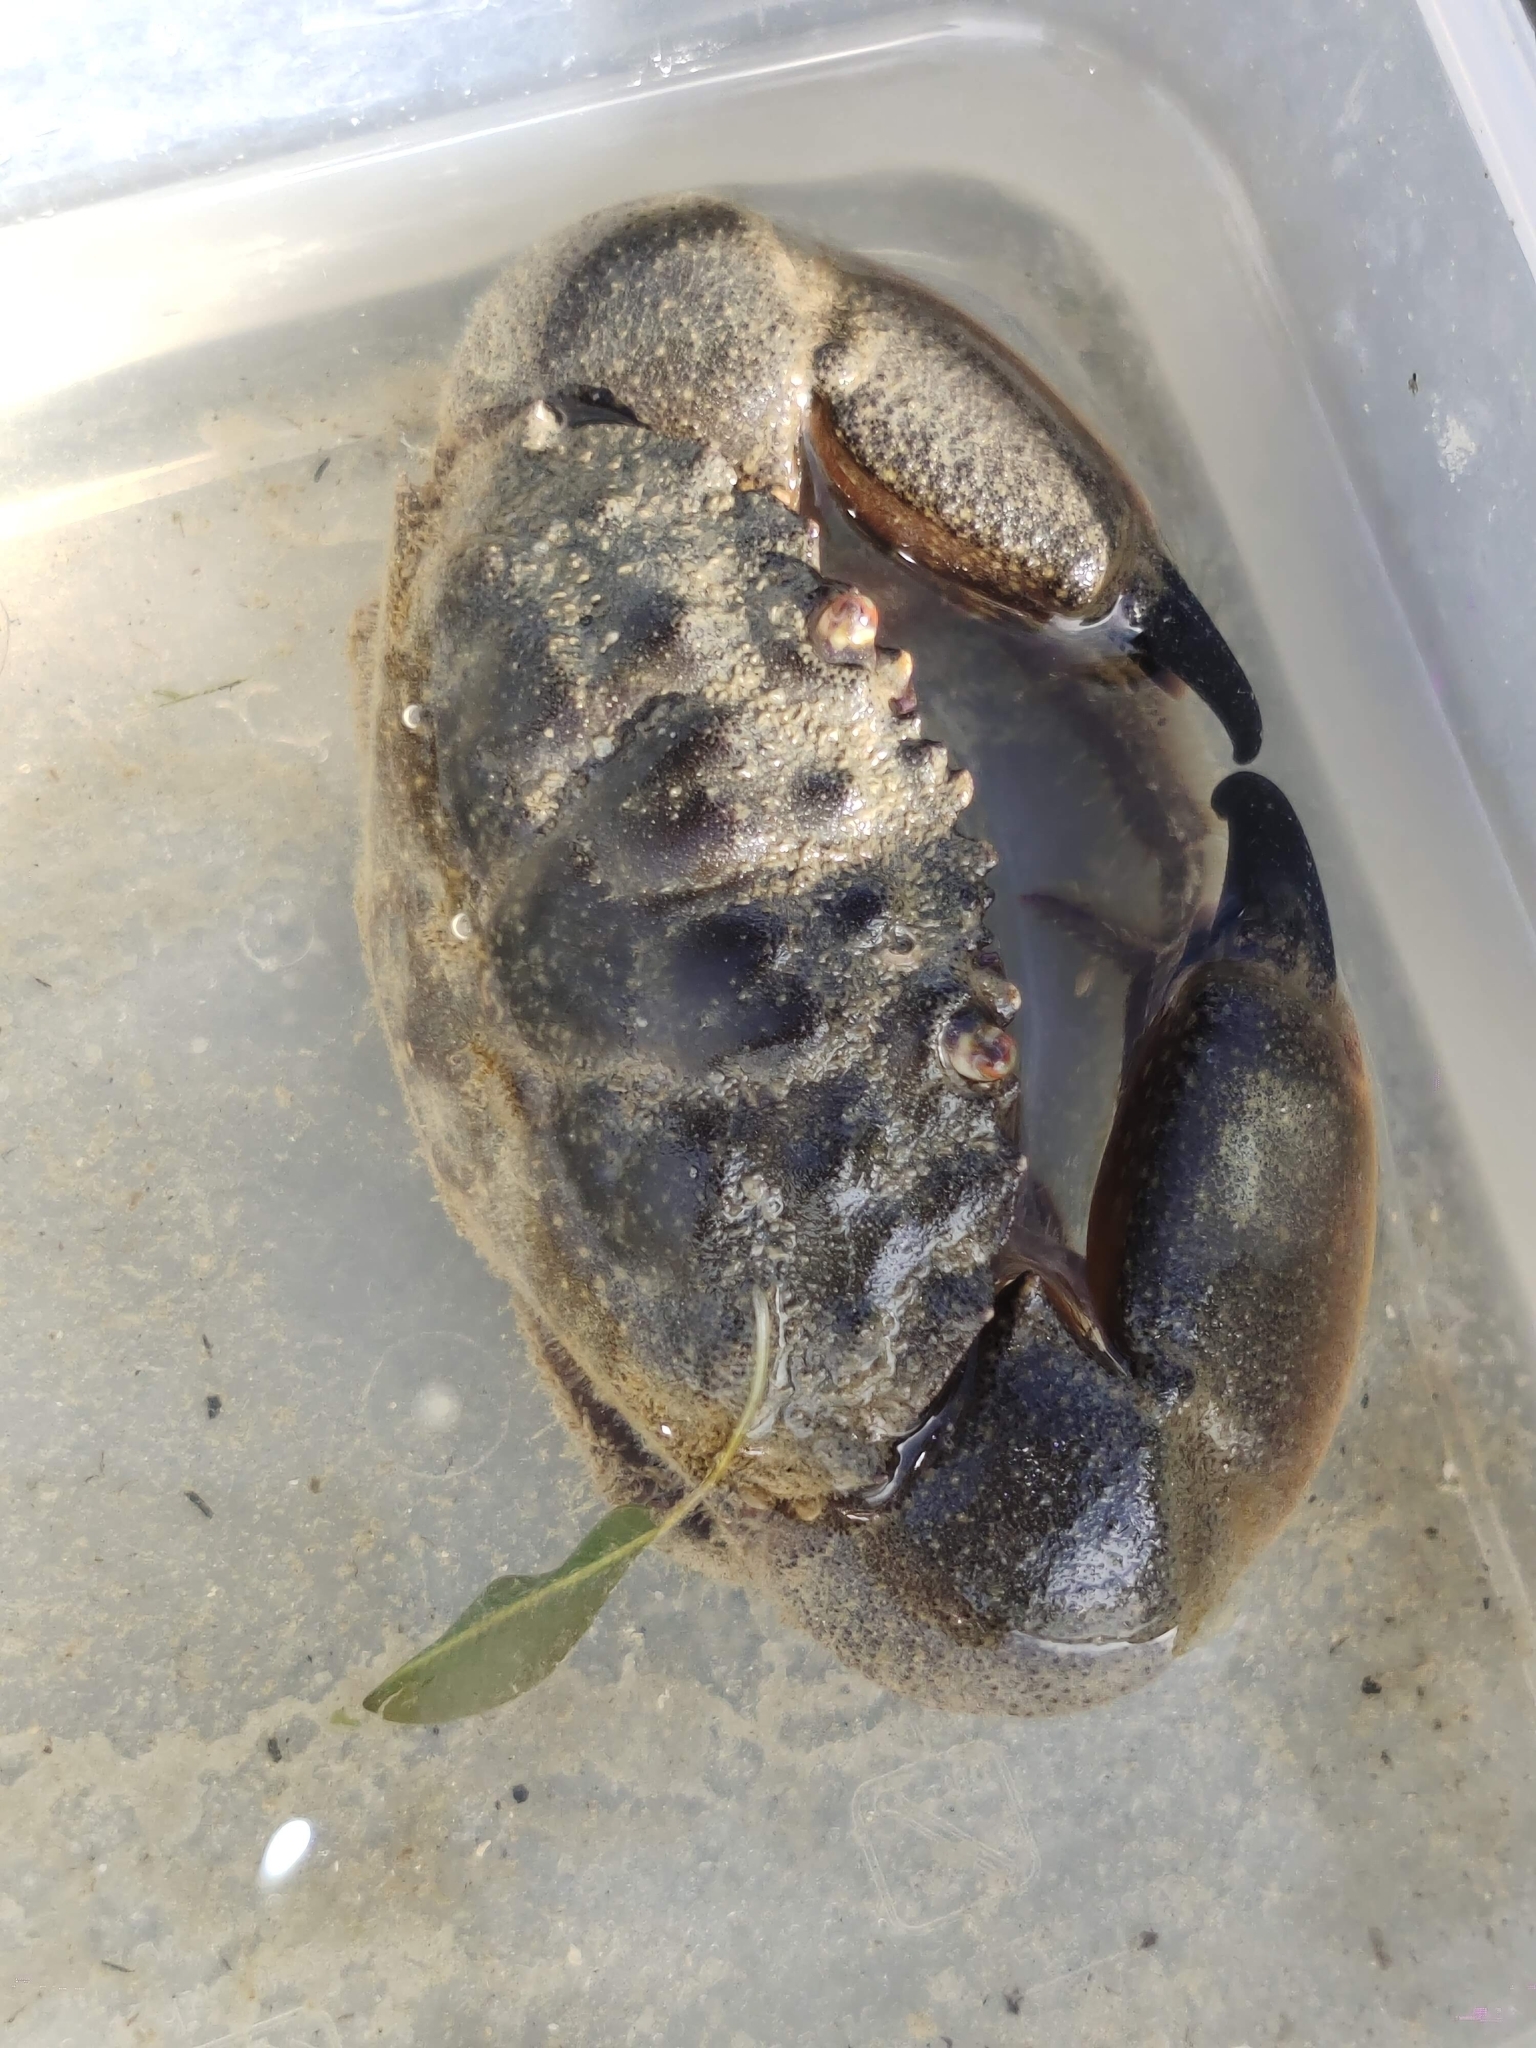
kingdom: Animalia
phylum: Arthropoda
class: Malacostraca
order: Decapoda
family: Menippidae
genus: Myomenippe
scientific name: Myomenippe hardwickii
